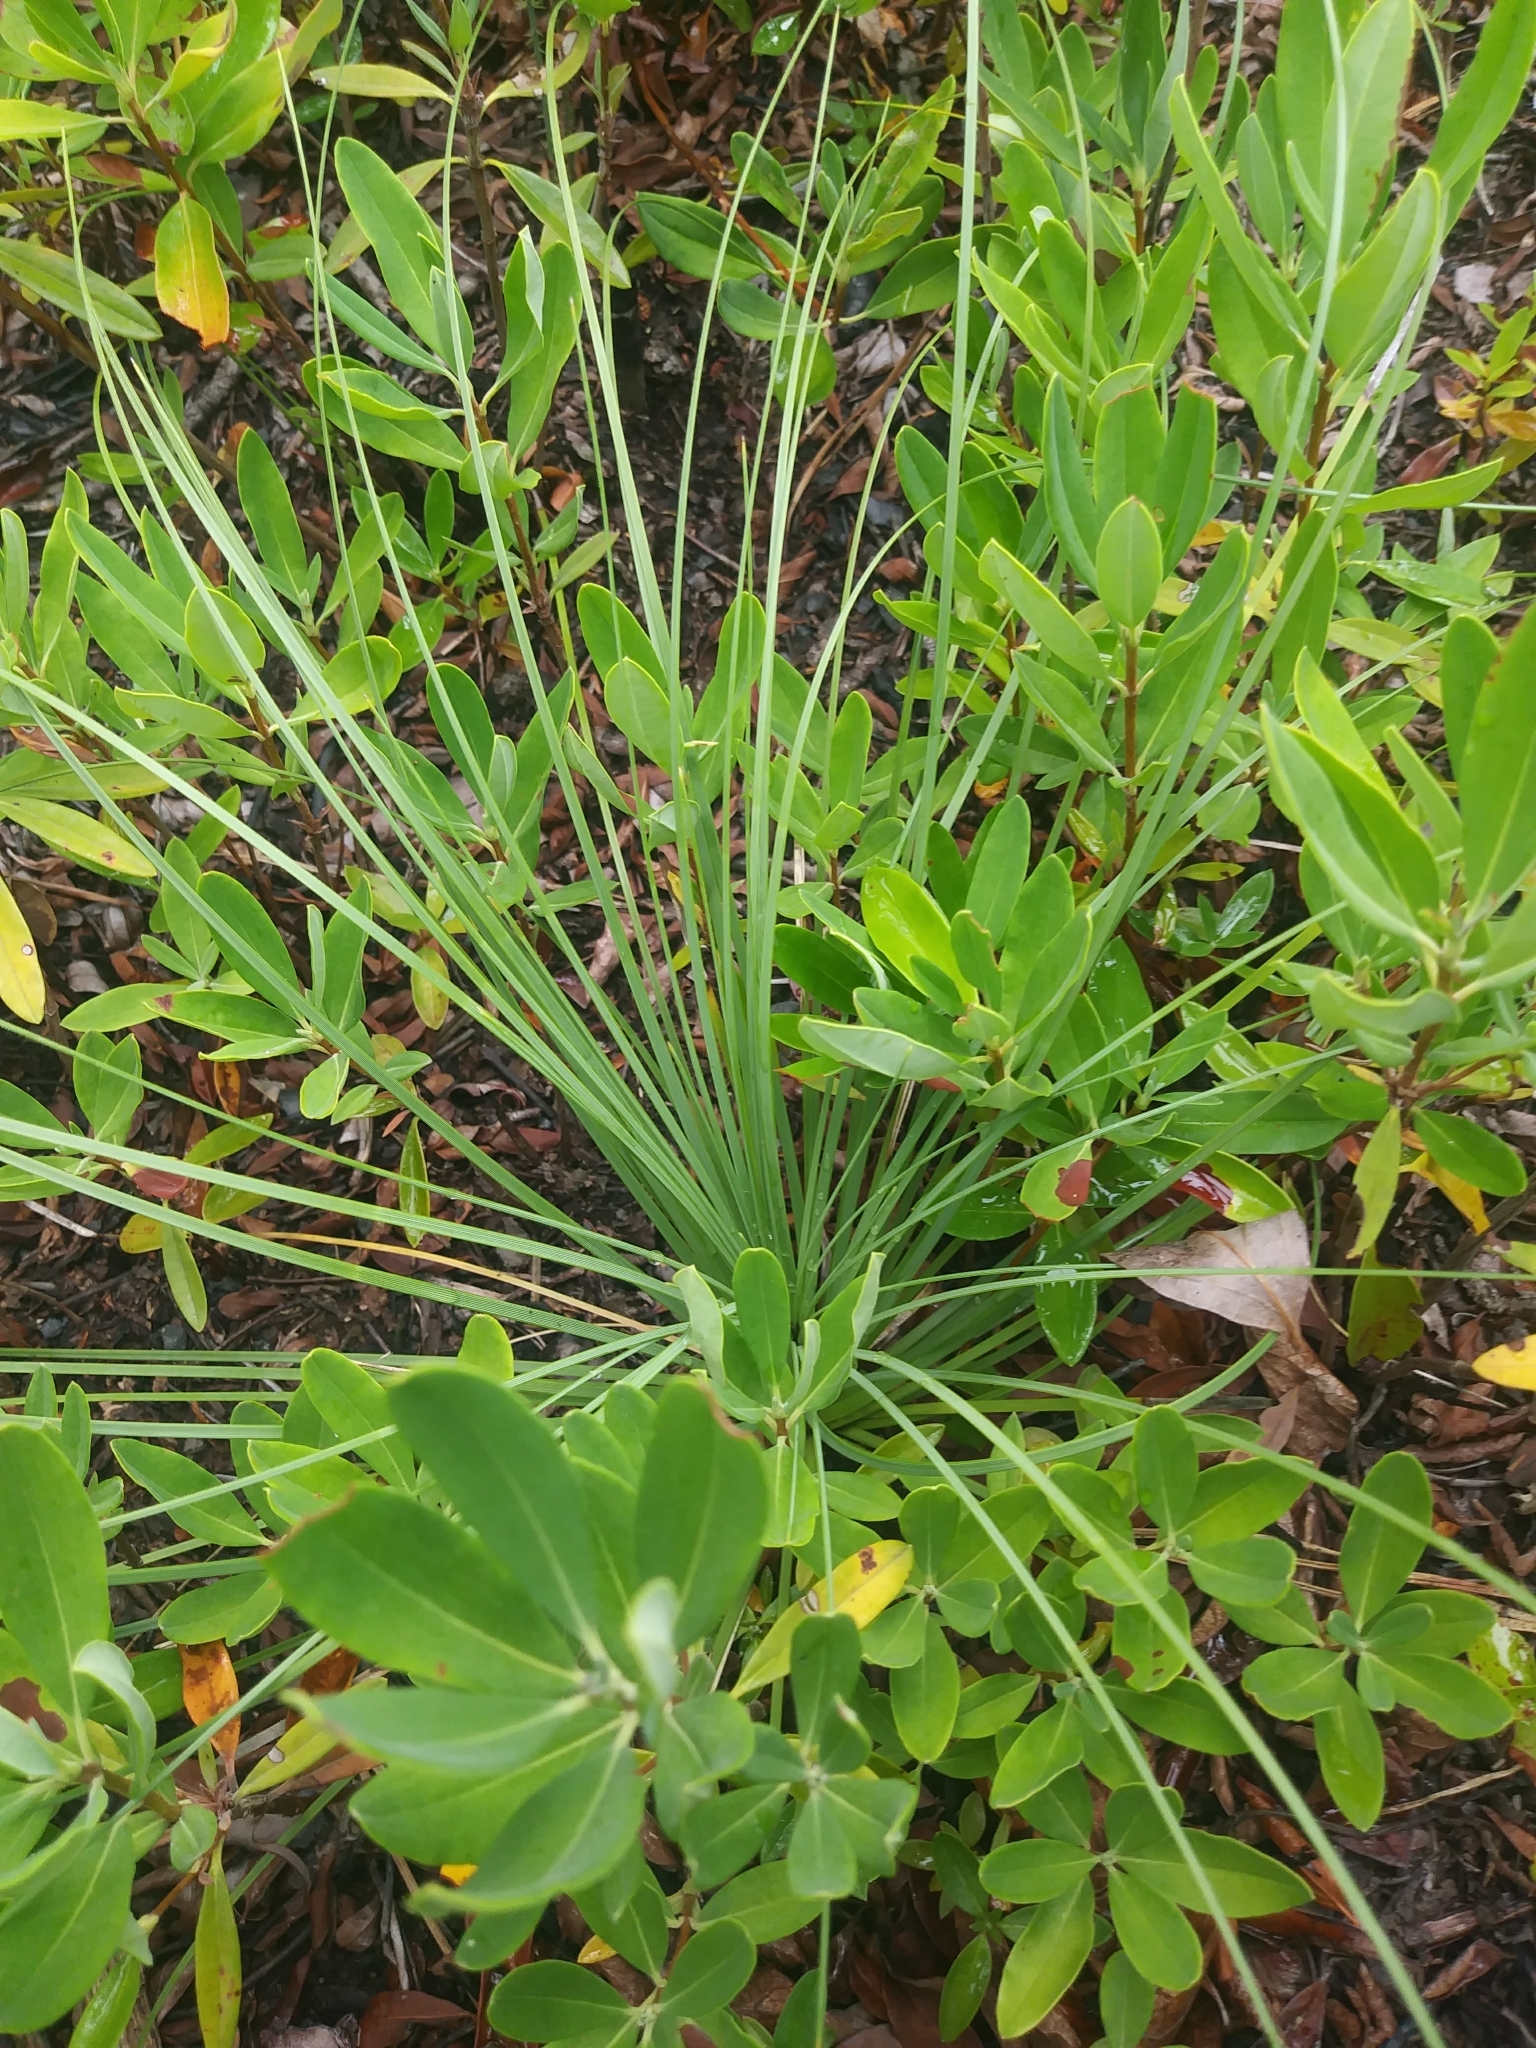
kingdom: Plantae
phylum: Tracheophyta
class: Liliopsida
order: Liliales
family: Melanthiaceae
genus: Xerophyllum
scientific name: Xerophyllum asphodeloides
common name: Mountain-asphodel
